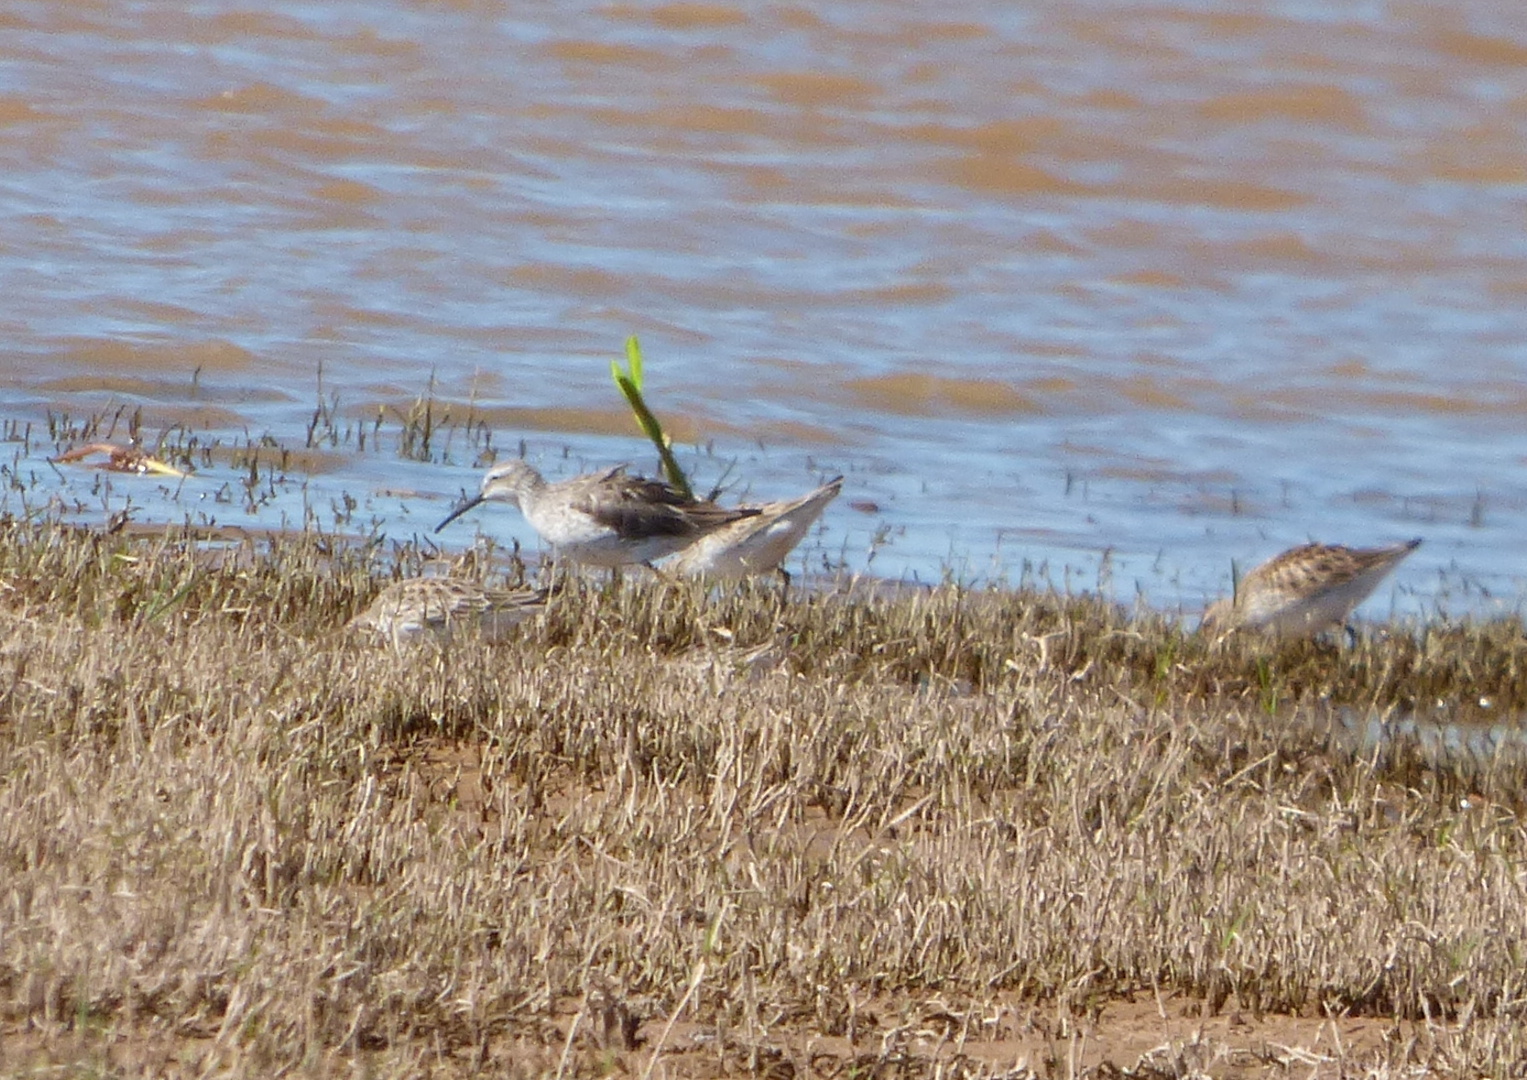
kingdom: Animalia
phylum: Chordata
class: Aves
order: Charadriiformes
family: Scolopacidae
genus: Calidris
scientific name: Calidris himantopus
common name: Stilt sandpiper
